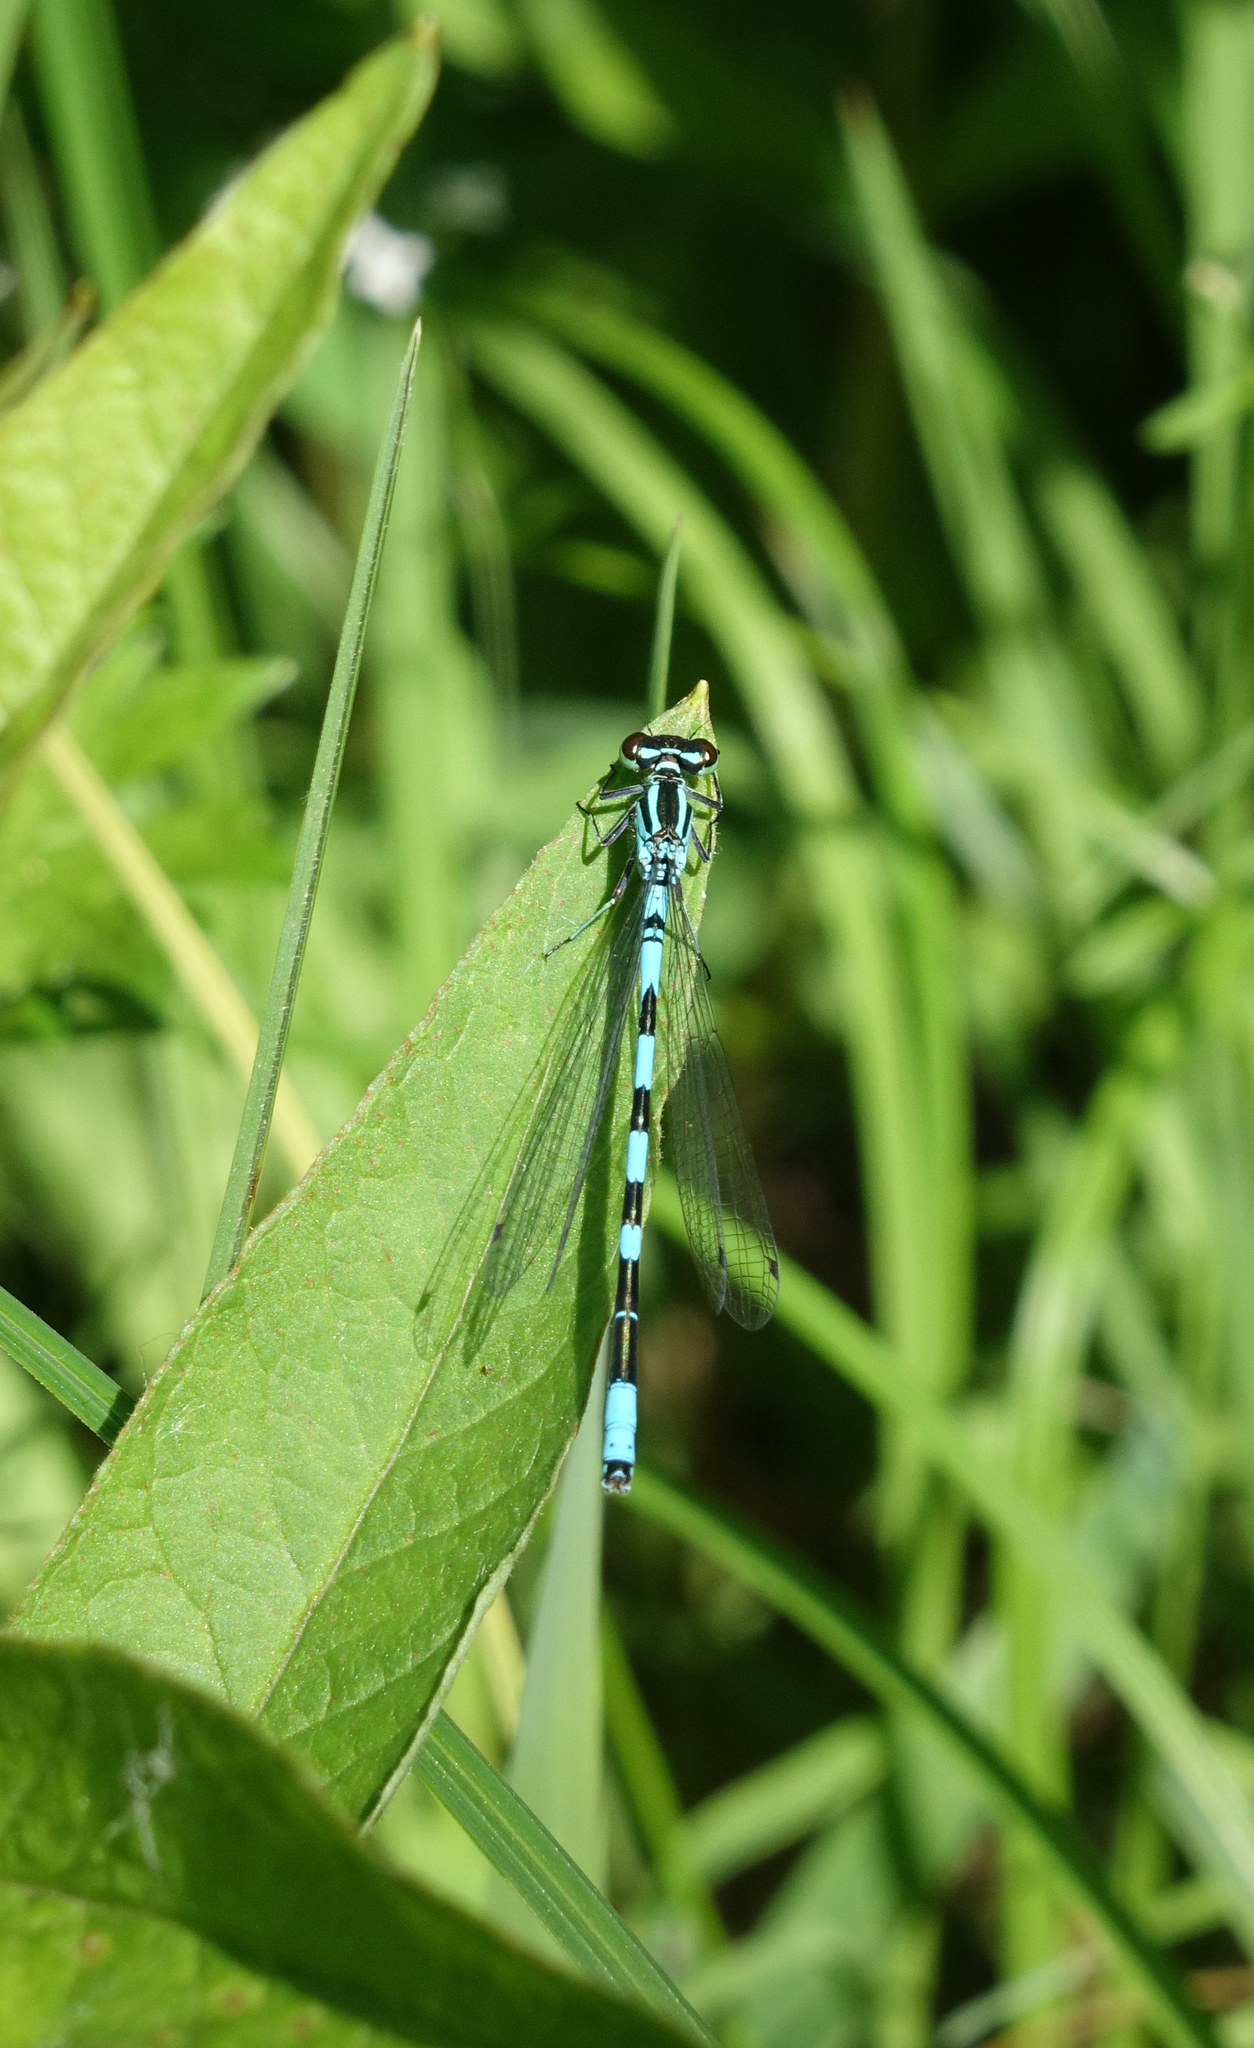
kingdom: Animalia
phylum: Arthropoda
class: Insecta
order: Odonata
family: Coenagrionidae
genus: Coenagrion
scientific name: Coenagrion hastulatum
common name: Spearhead bluet
